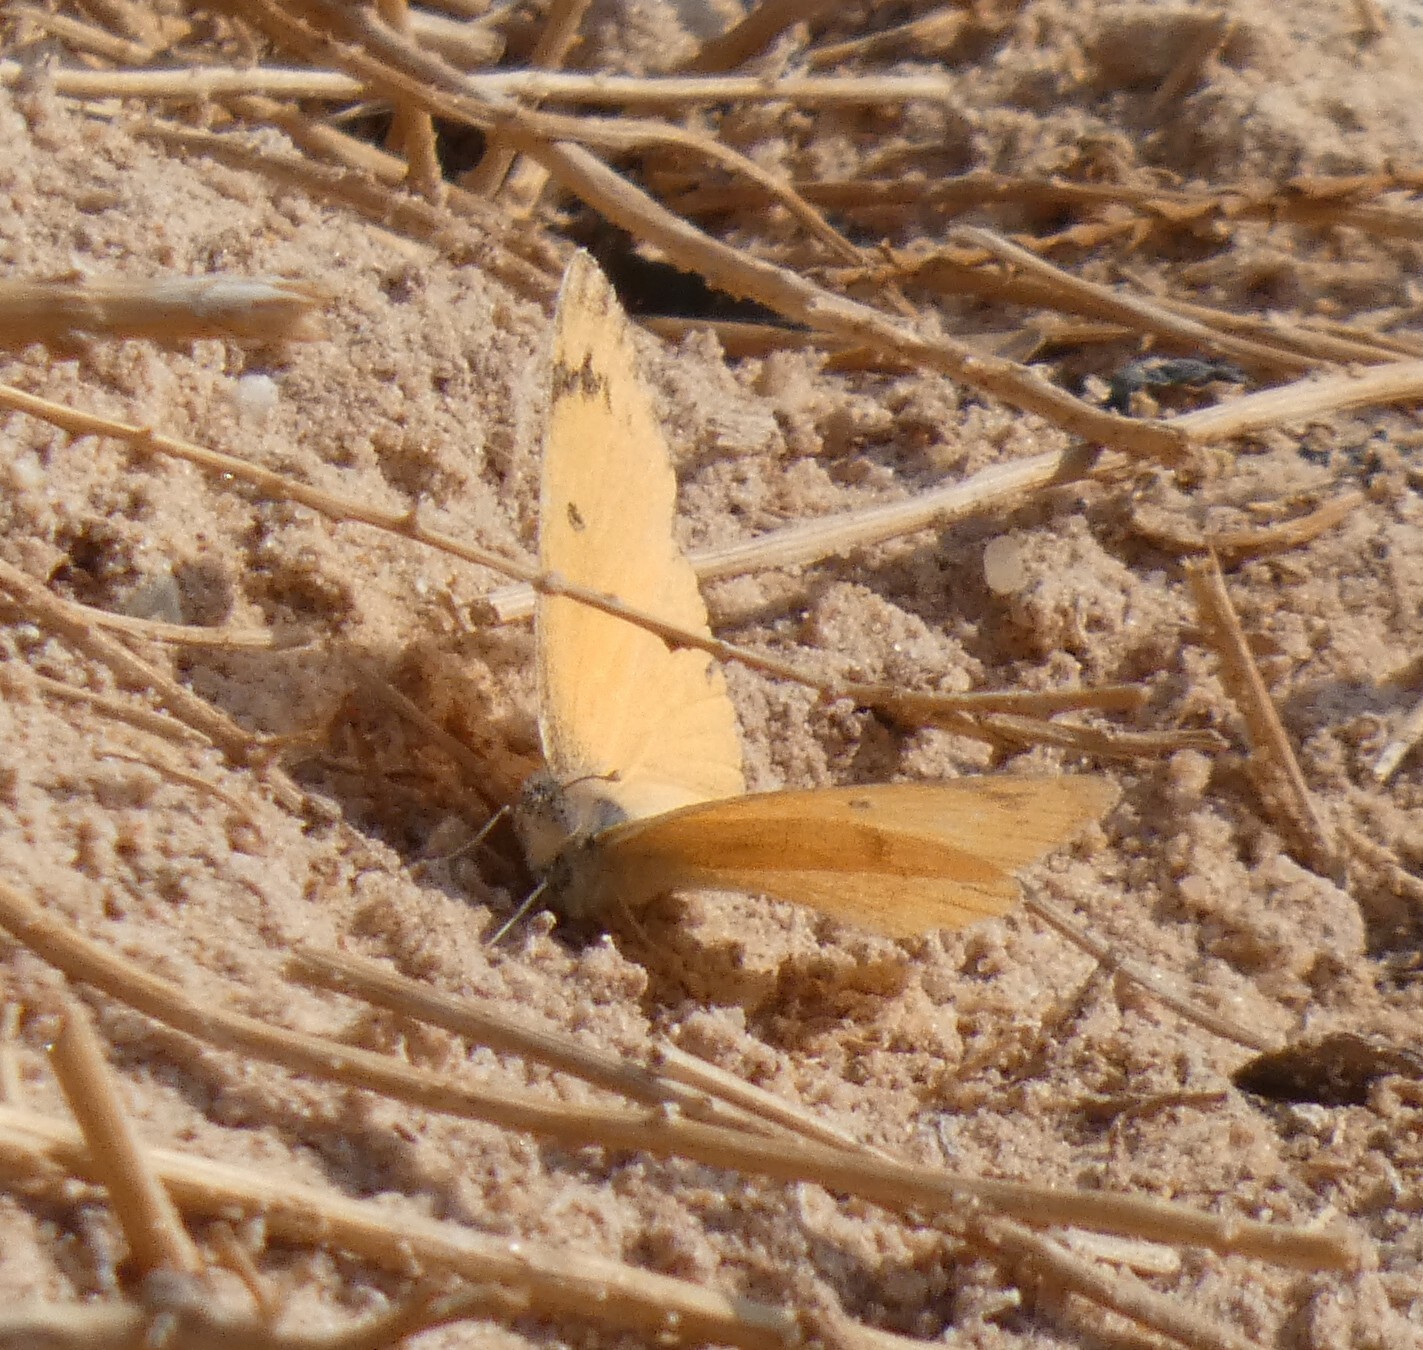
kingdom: Animalia
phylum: Arthropoda
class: Insecta
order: Lepidoptera
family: Pieridae
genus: Colotis
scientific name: Colotis fausta
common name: Large salmon arab
